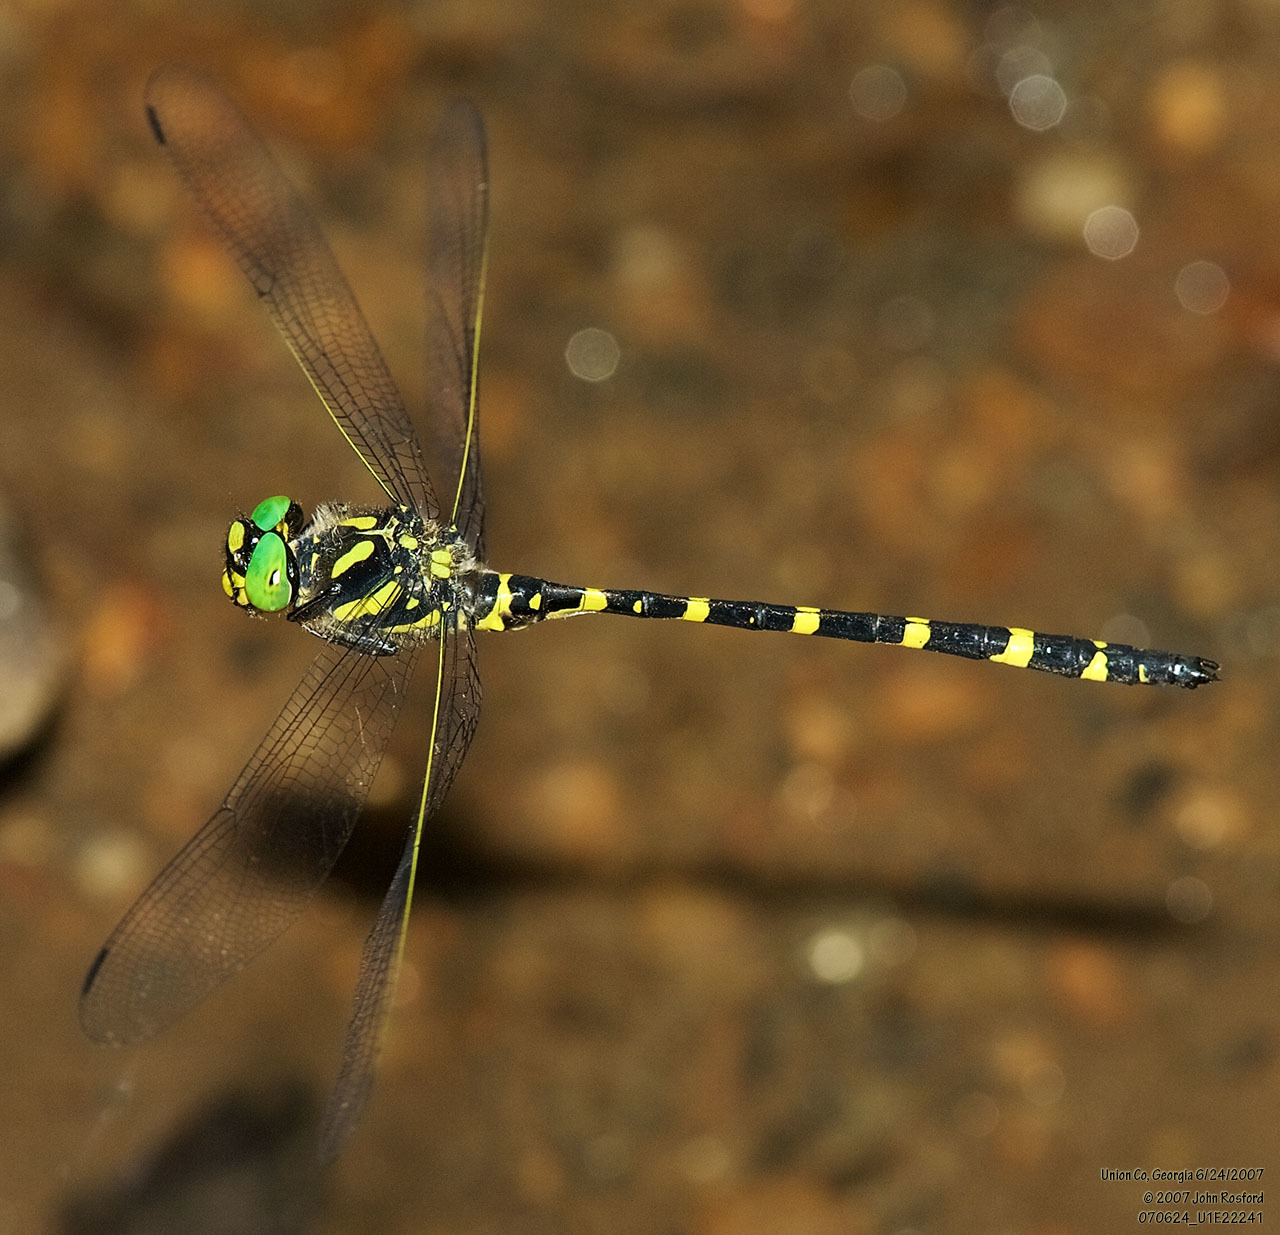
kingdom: Animalia
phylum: Arthropoda
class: Insecta
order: Odonata
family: Cordulegastridae
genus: Cordulegaster
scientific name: Cordulegaster erronea
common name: Tiger spiketail
